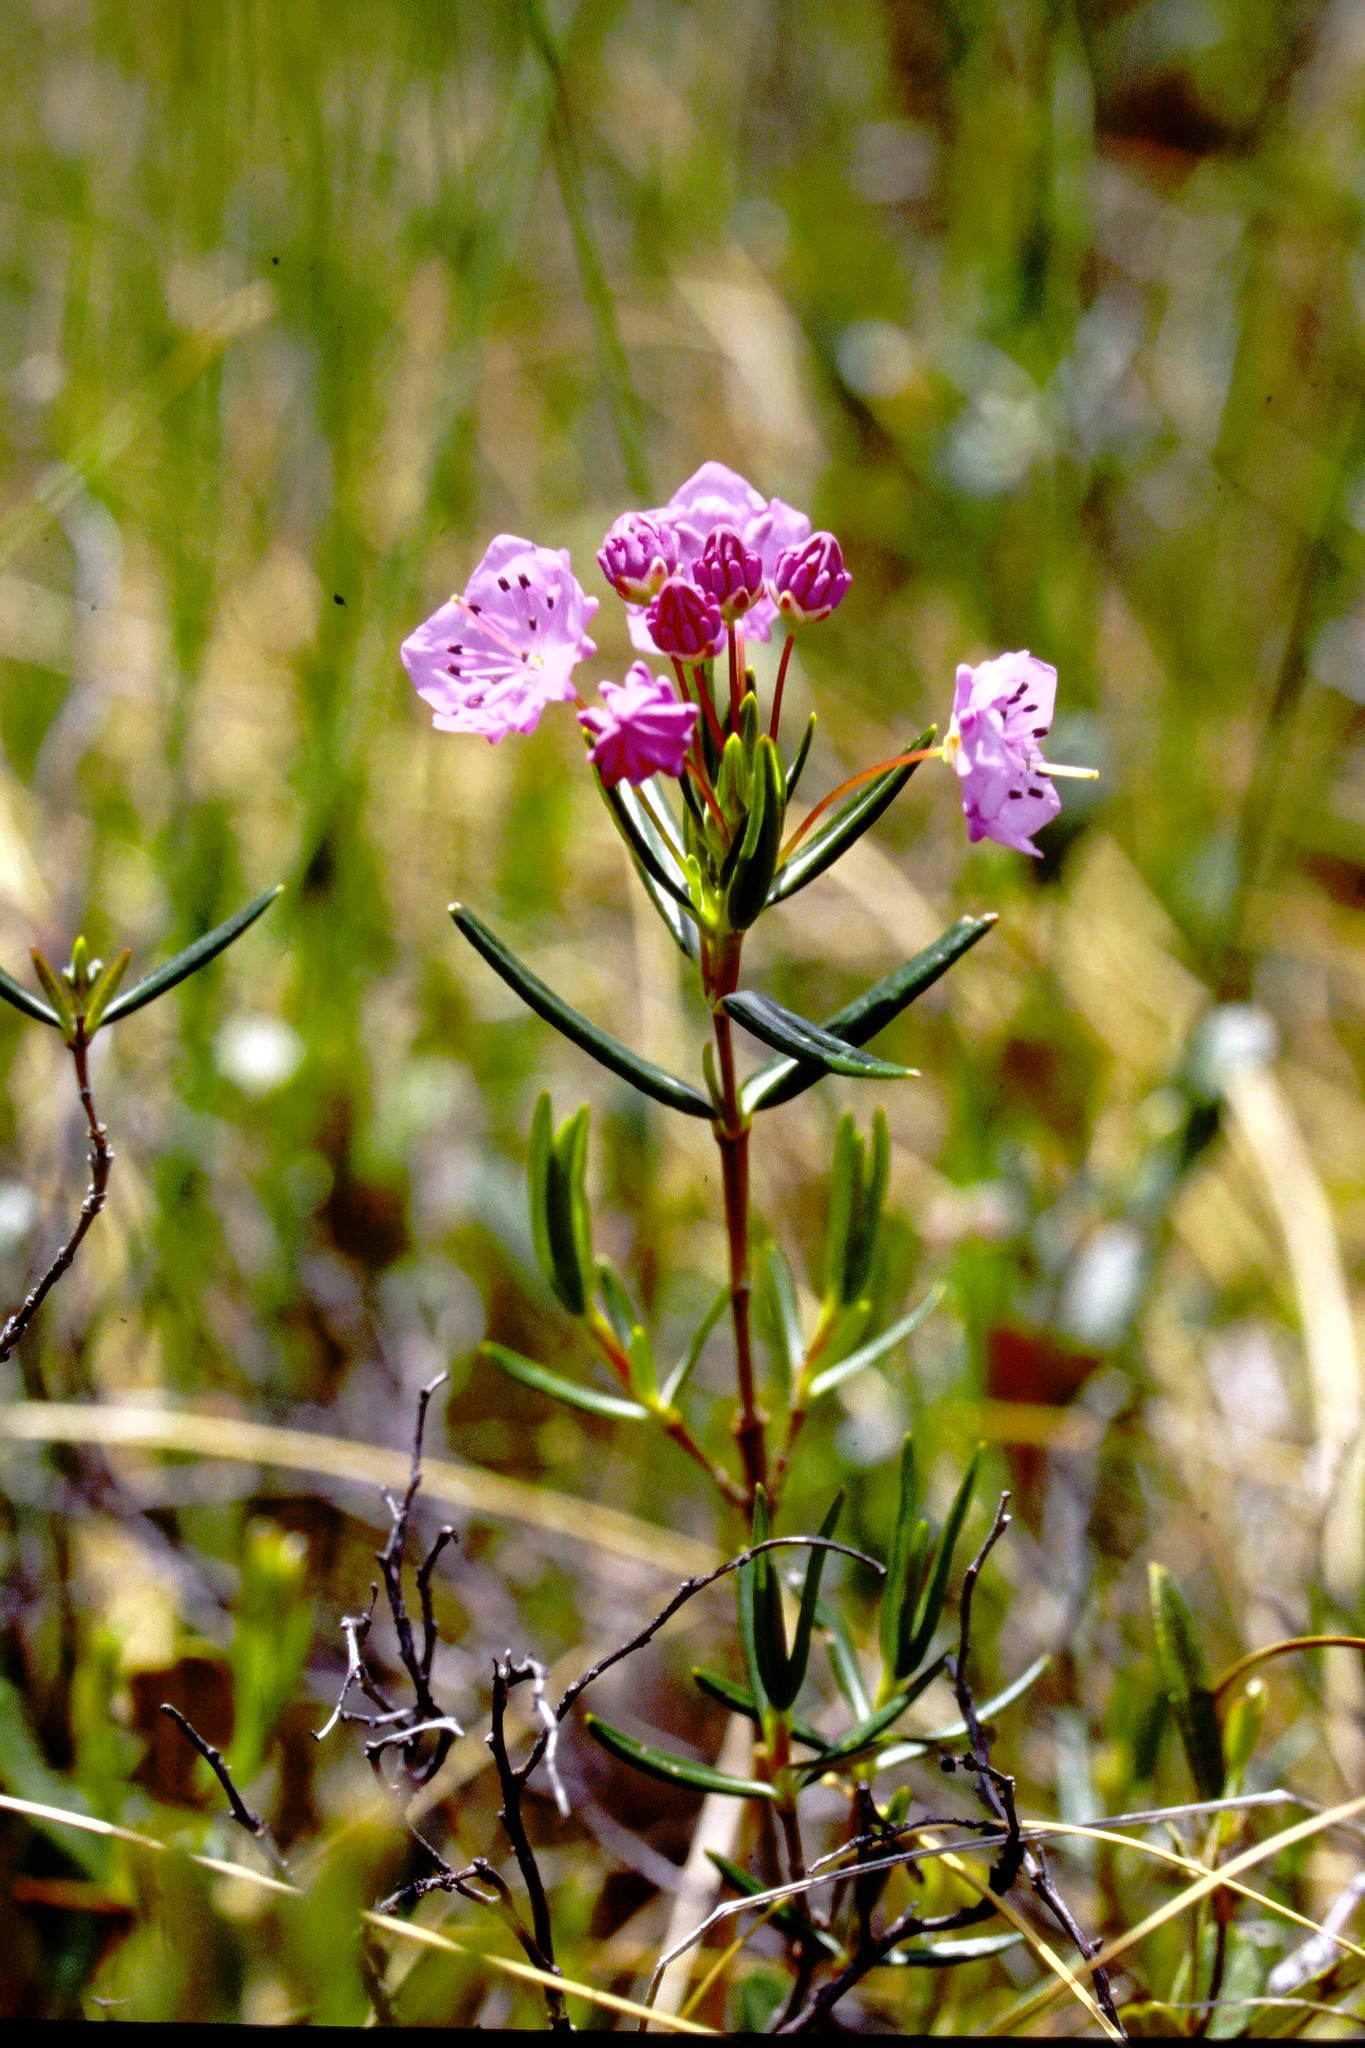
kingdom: Plantae
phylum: Tracheophyta
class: Magnoliopsida
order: Ericales
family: Ericaceae
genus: Kalmia
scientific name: Kalmia polifolia
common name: Bog-laurel
